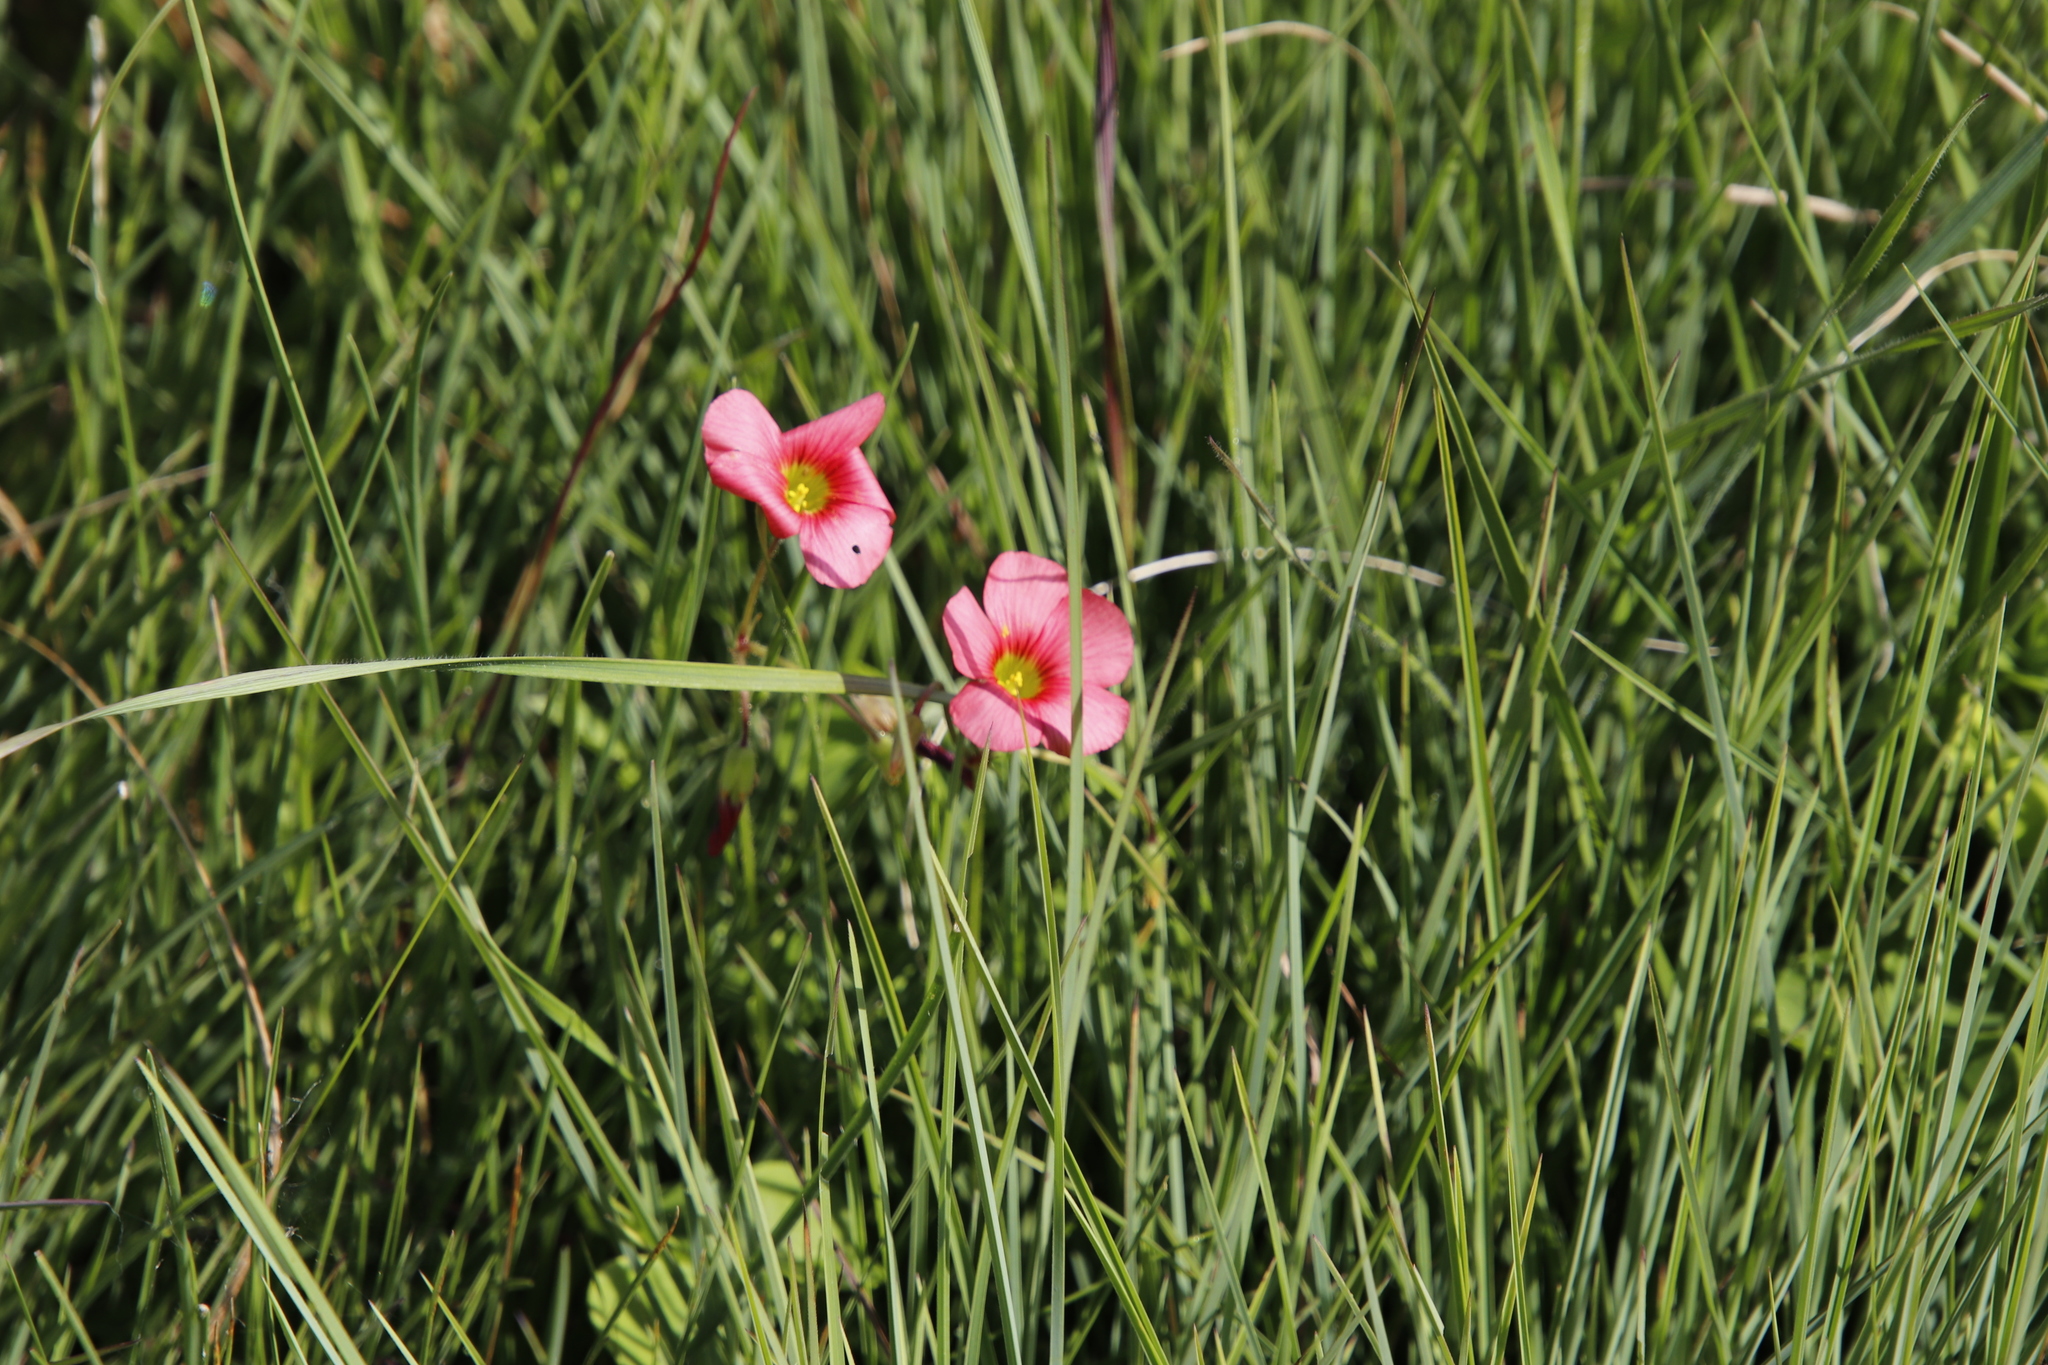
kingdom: Plantae
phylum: Tracheophyta
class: Magnoliopsida
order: Oxalidales
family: Oxalidaceae
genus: Oxalis
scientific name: Oxalis bowiei
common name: Bowie's wood-sorrel
